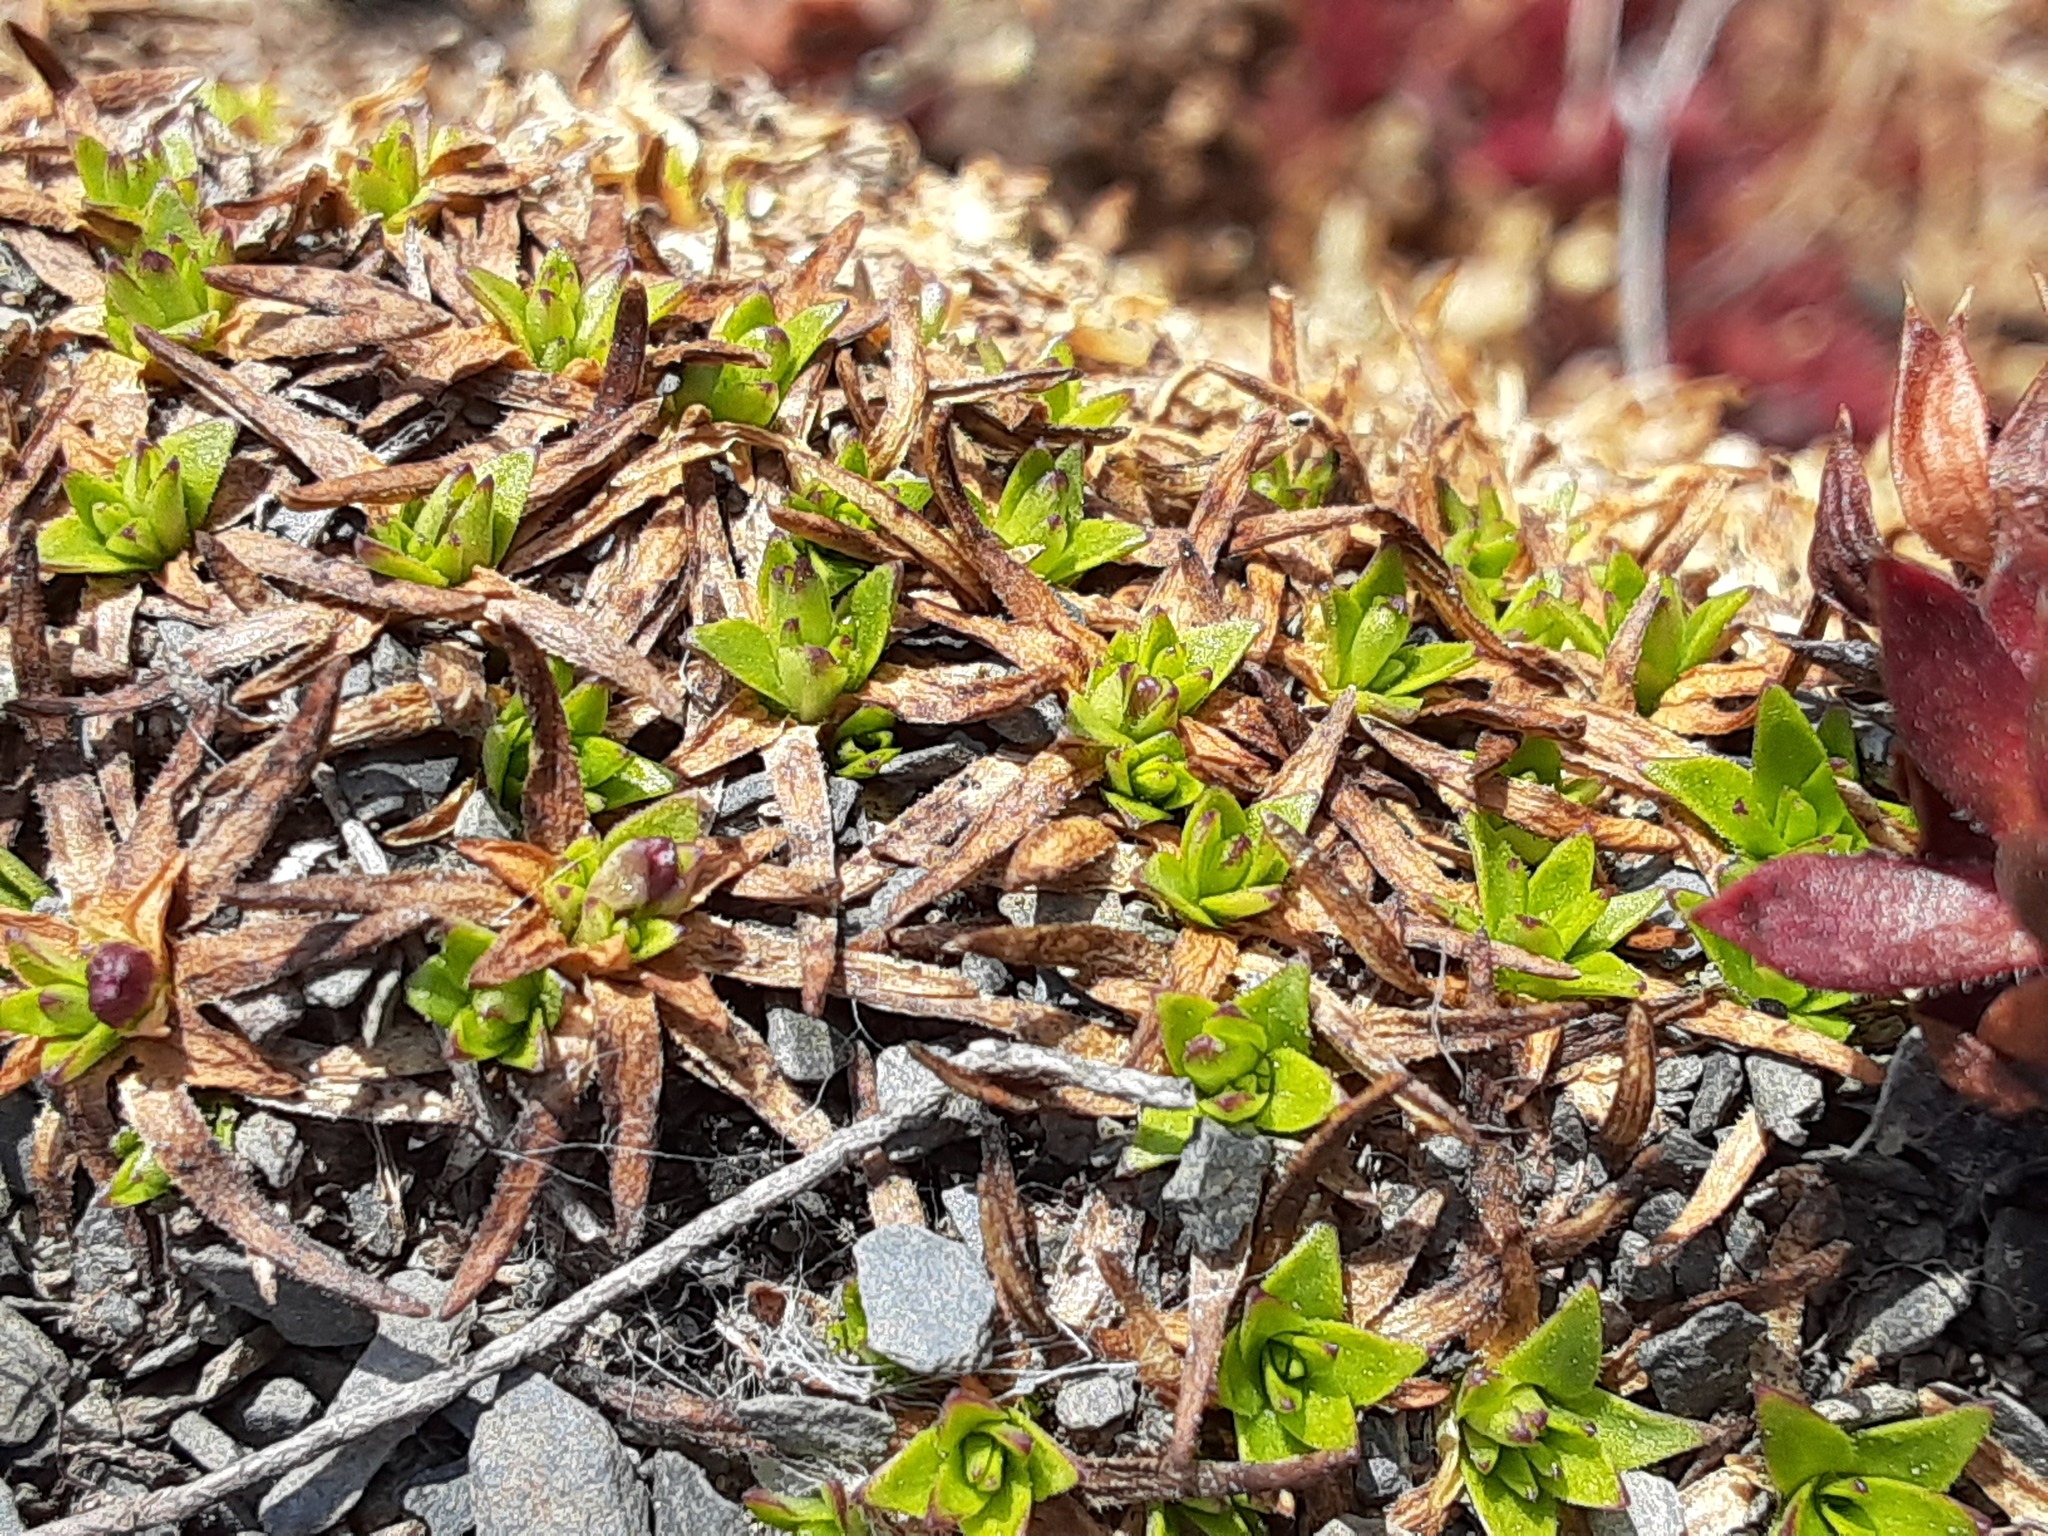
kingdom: Plantae
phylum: Tracheophyta
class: Magnoliopsida
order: Caryophyllales
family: Caryophyllaceae
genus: Silene
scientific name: Silene acaulis
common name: Moss campion
